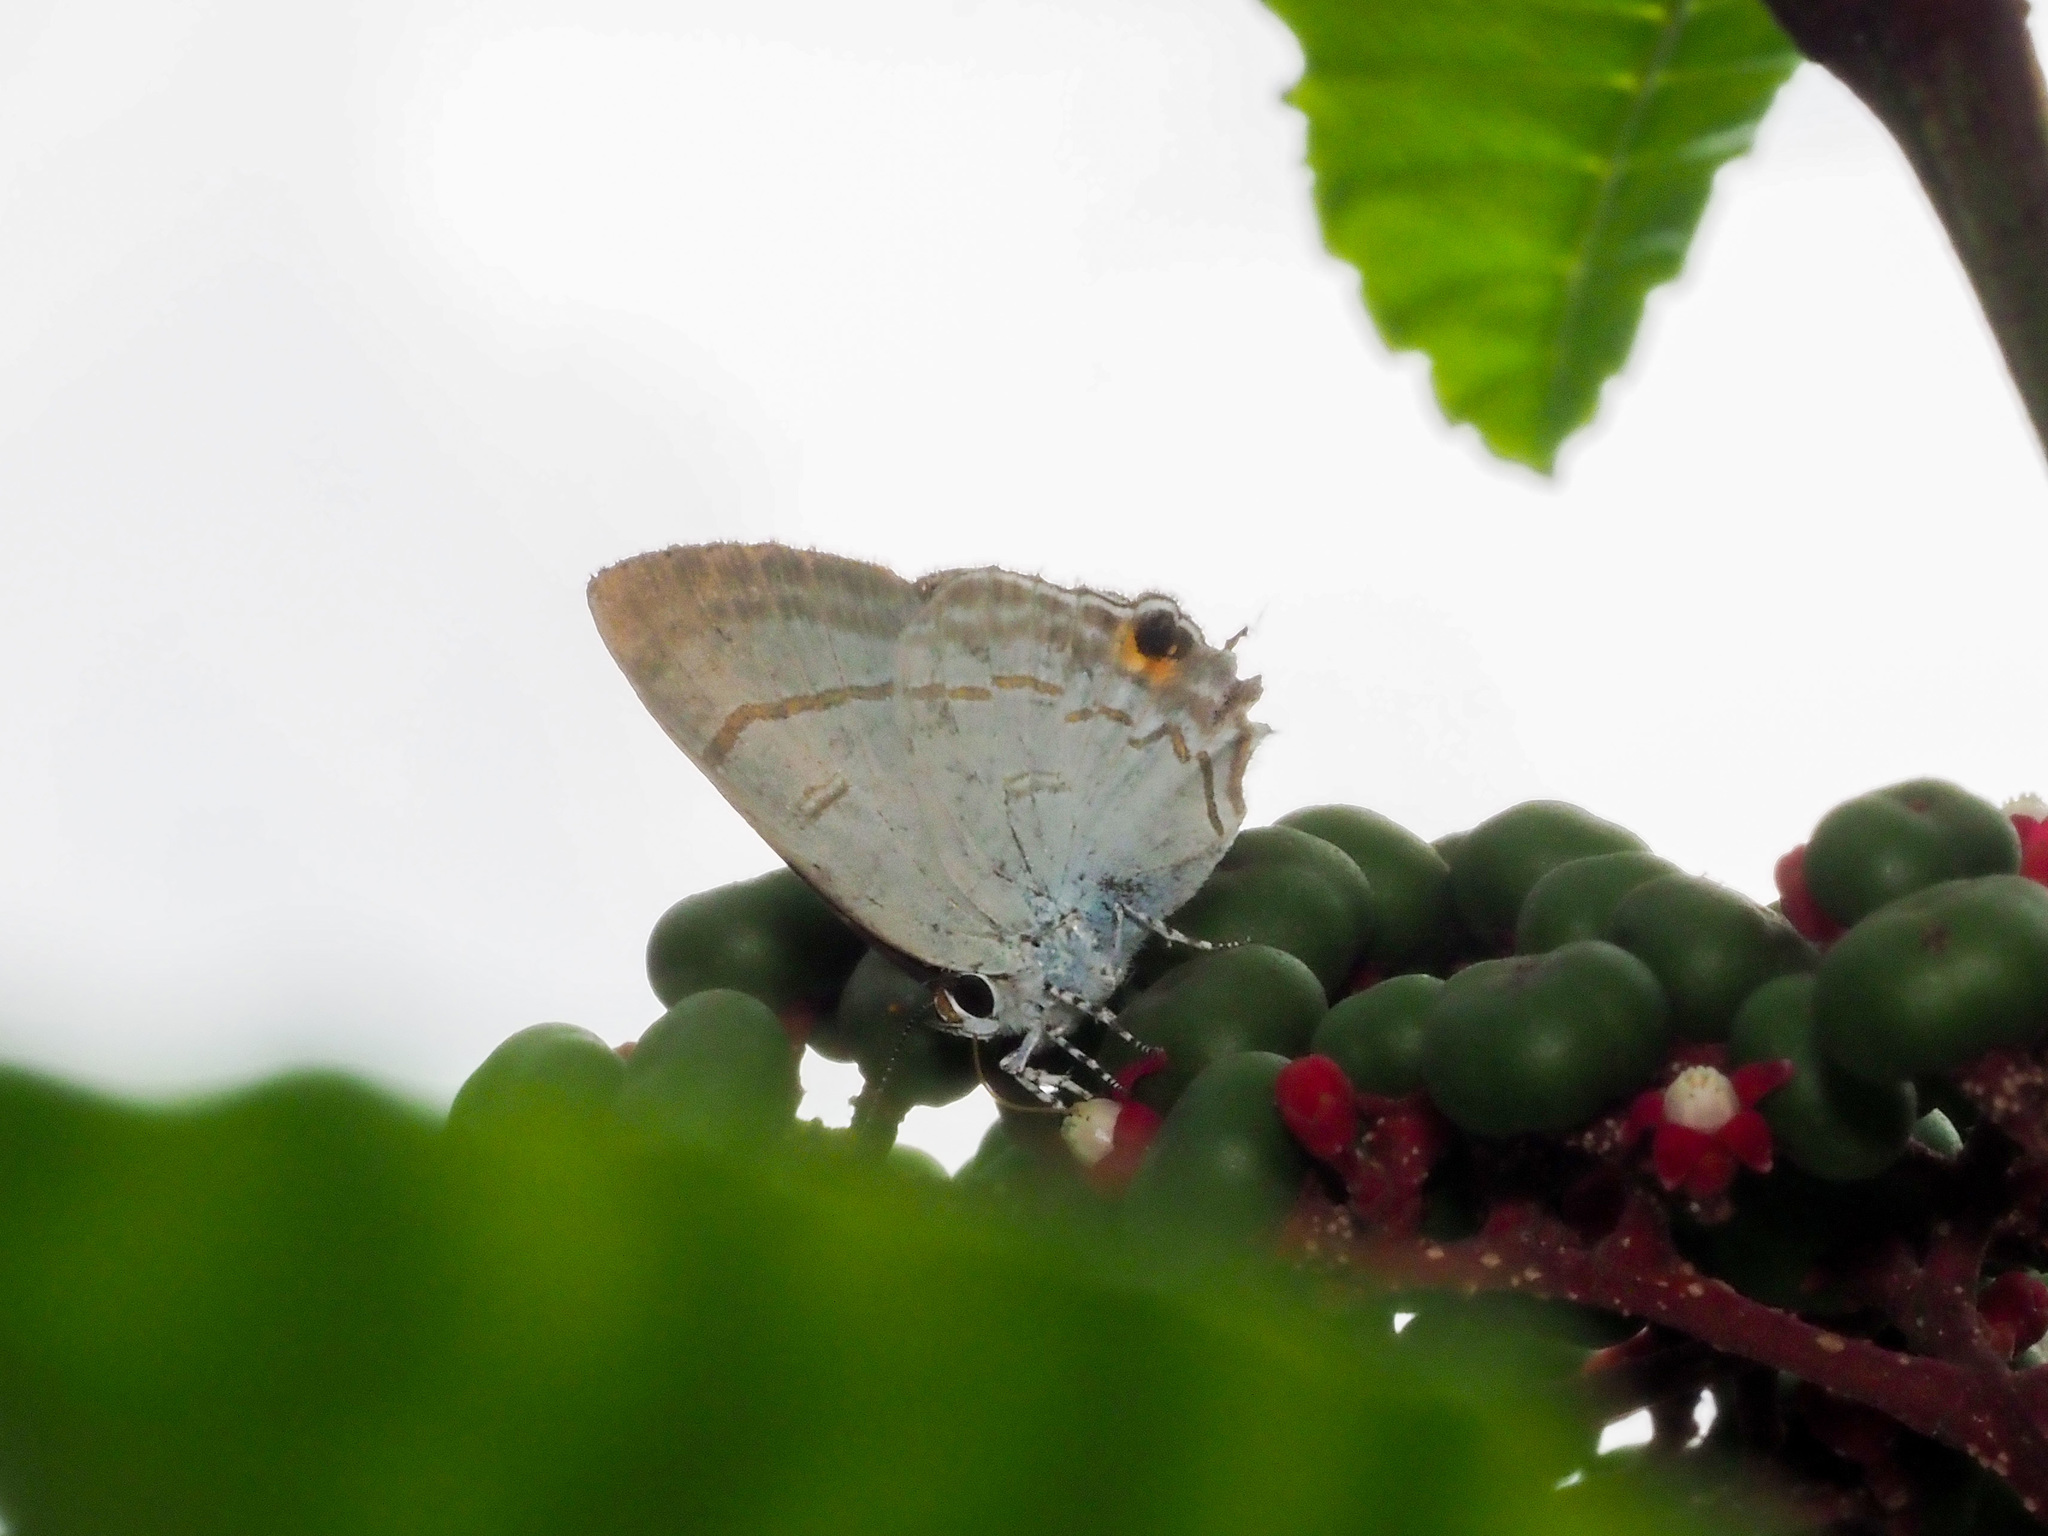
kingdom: Animalia
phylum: Arthropoda
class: Insecta
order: Lepidoptera
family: Lycaenidae
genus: Hypolycaena
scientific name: Hypolycaena erylus
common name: Common tit
